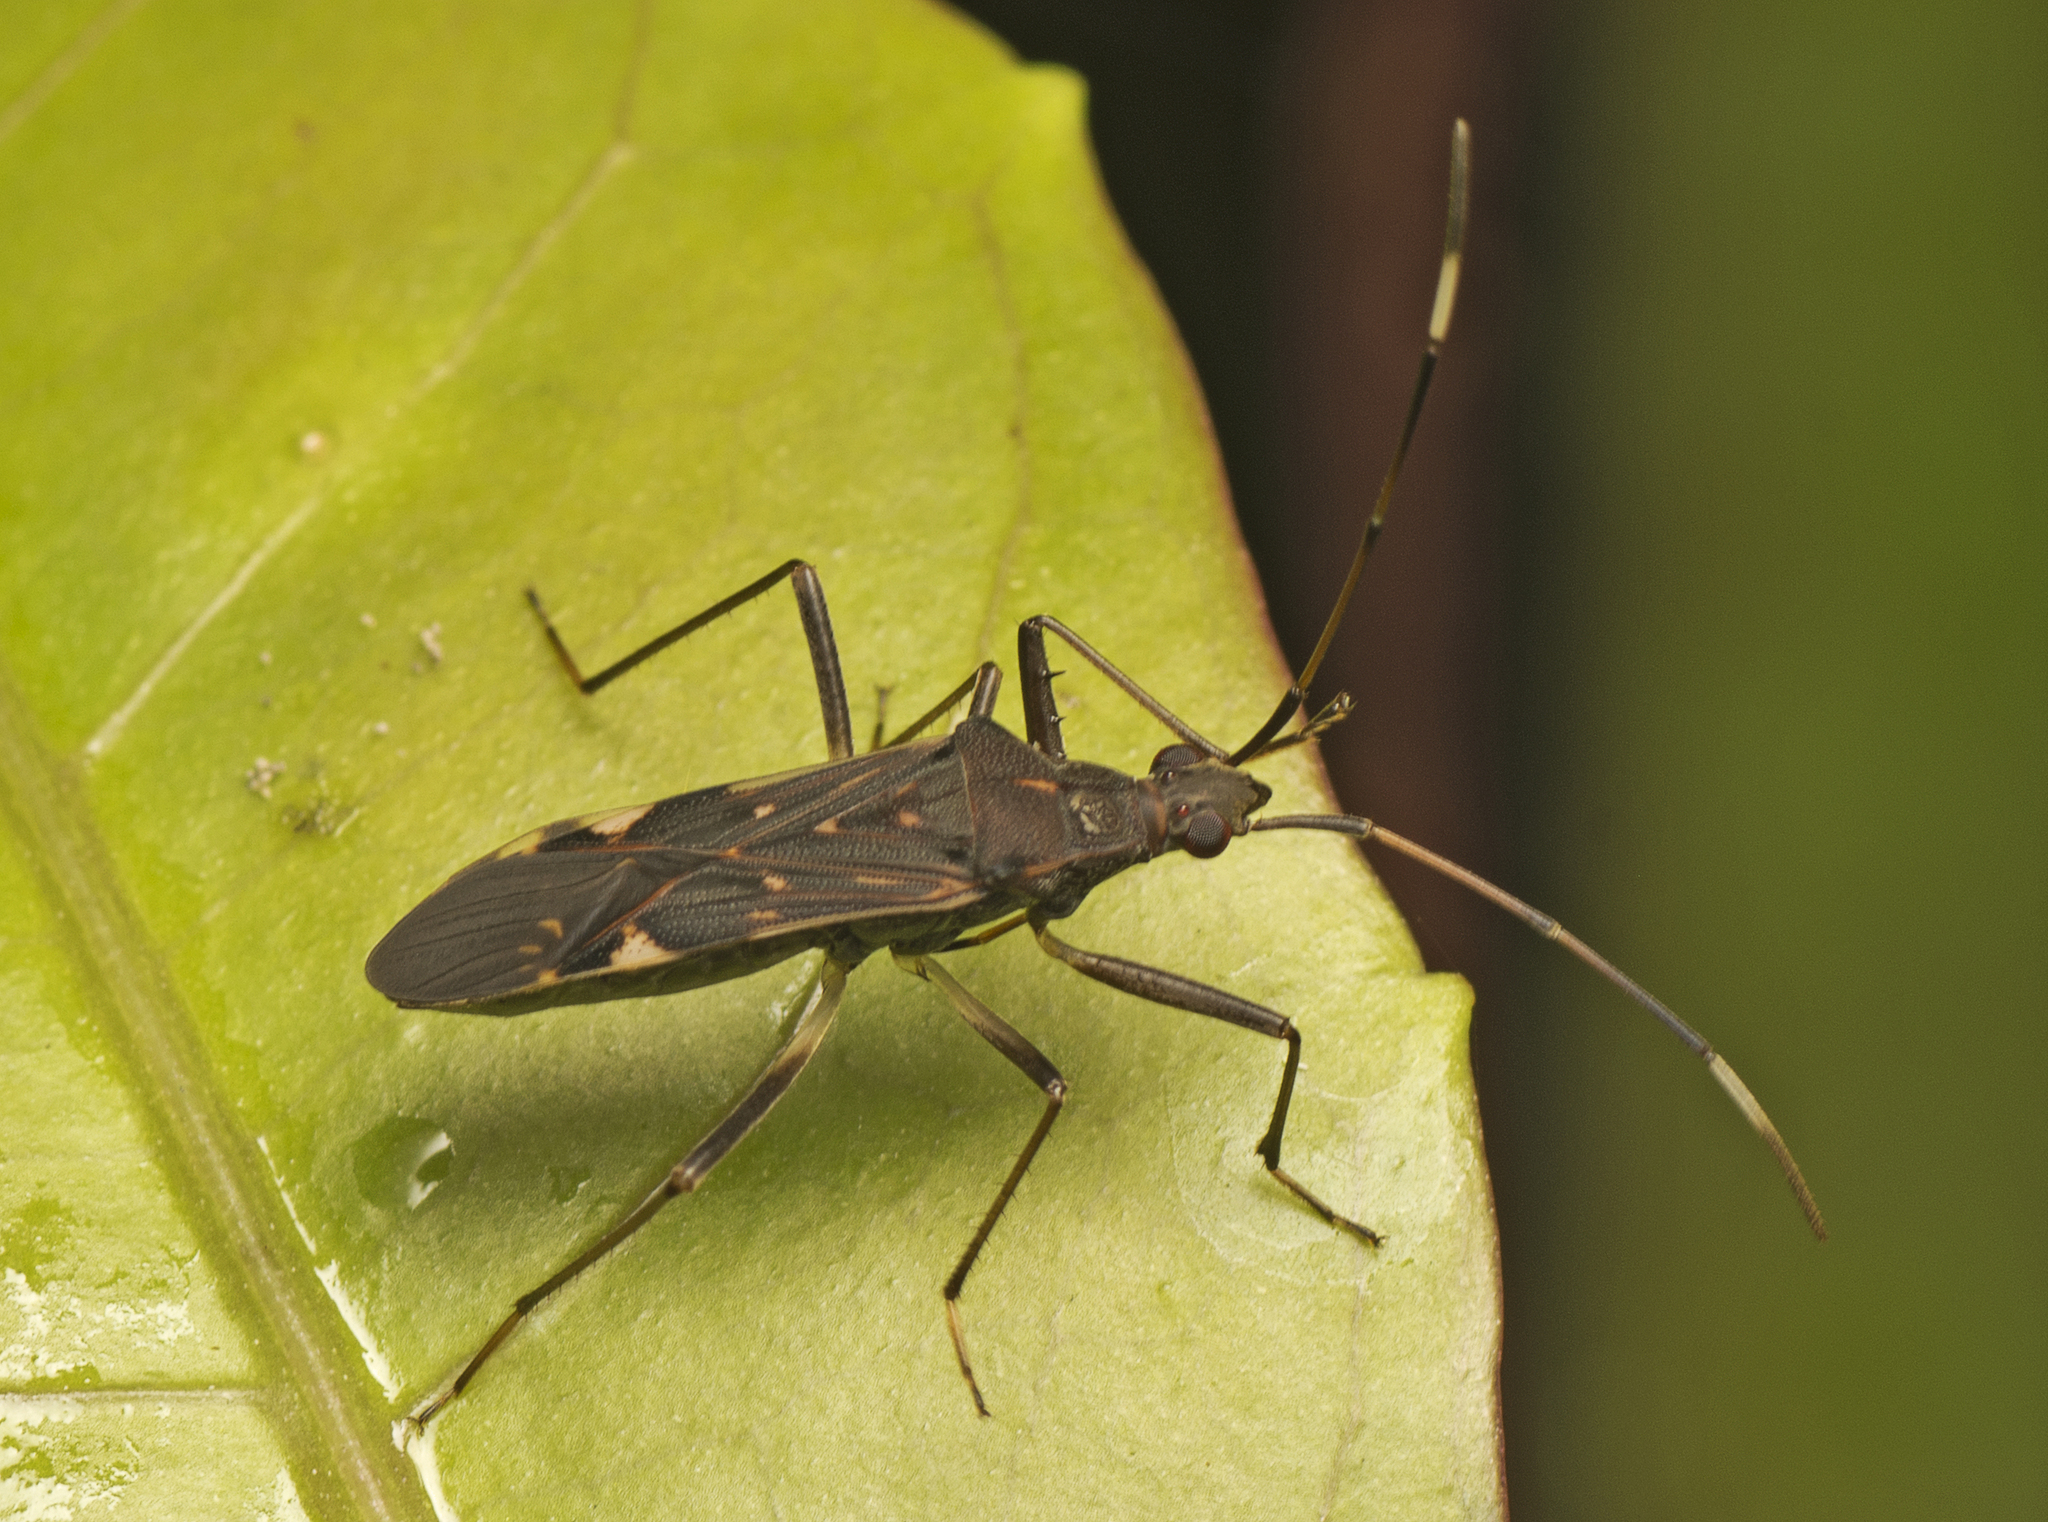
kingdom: Animalia
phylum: Arthropoda
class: Insecta
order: Hemiptera
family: Rhyparochromidae
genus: Narbo
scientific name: Narbo biplagiatus
